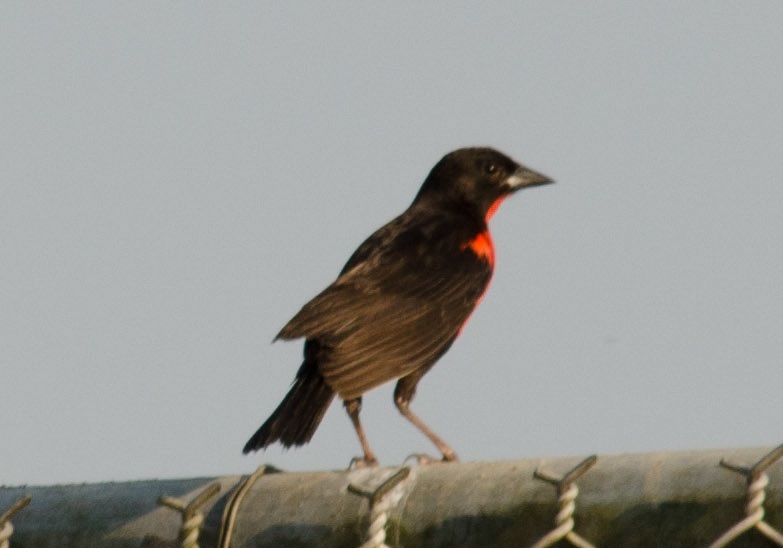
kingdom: Animalia
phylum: Chordata
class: Aves
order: Passeriformes
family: Icteridae
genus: Sturnella
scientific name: Sturnella militaris
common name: Red-breasted blackbird
